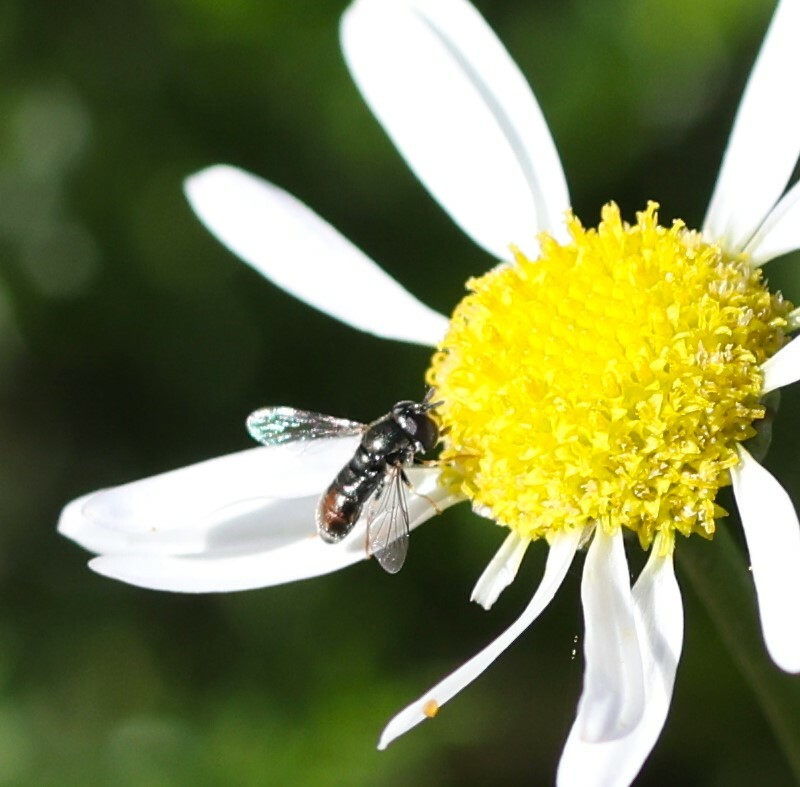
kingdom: Animalia
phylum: Arthropoda
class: Insecta
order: Diptera
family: Syrphidae
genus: Paragus
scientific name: Paragus haemorrhous
